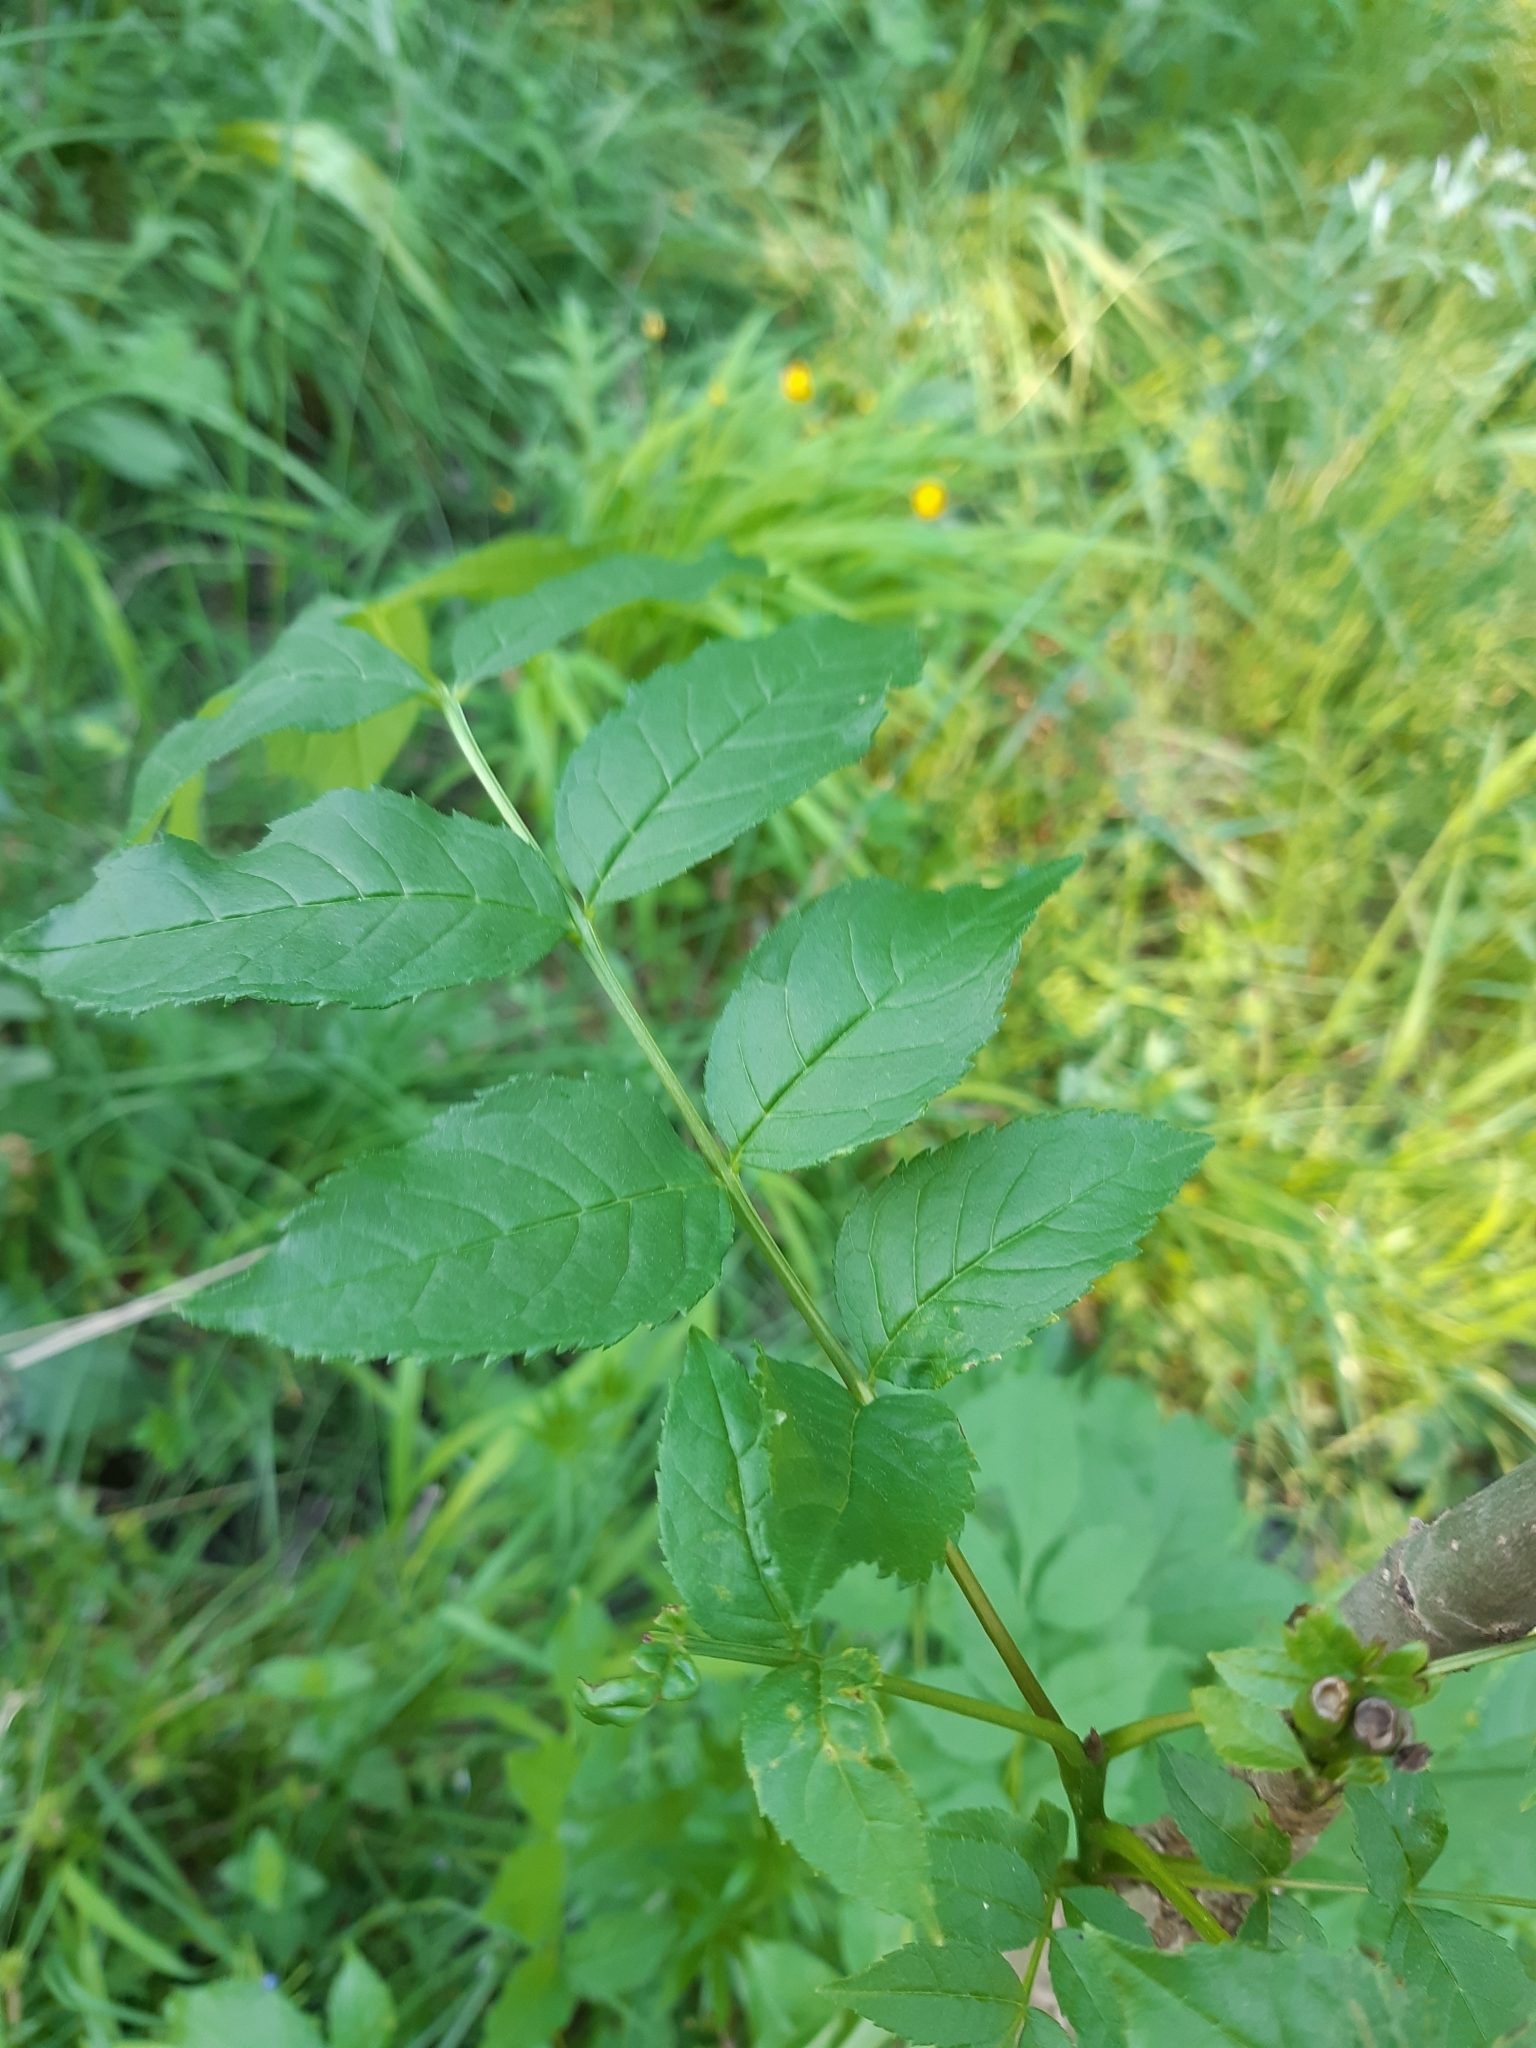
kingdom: Plantae
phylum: Tracheophyta
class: Magnoliopsida
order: Lamiales
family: Oleaceae
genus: Fraxinus
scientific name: Fraxinus excelsior
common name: European ash
